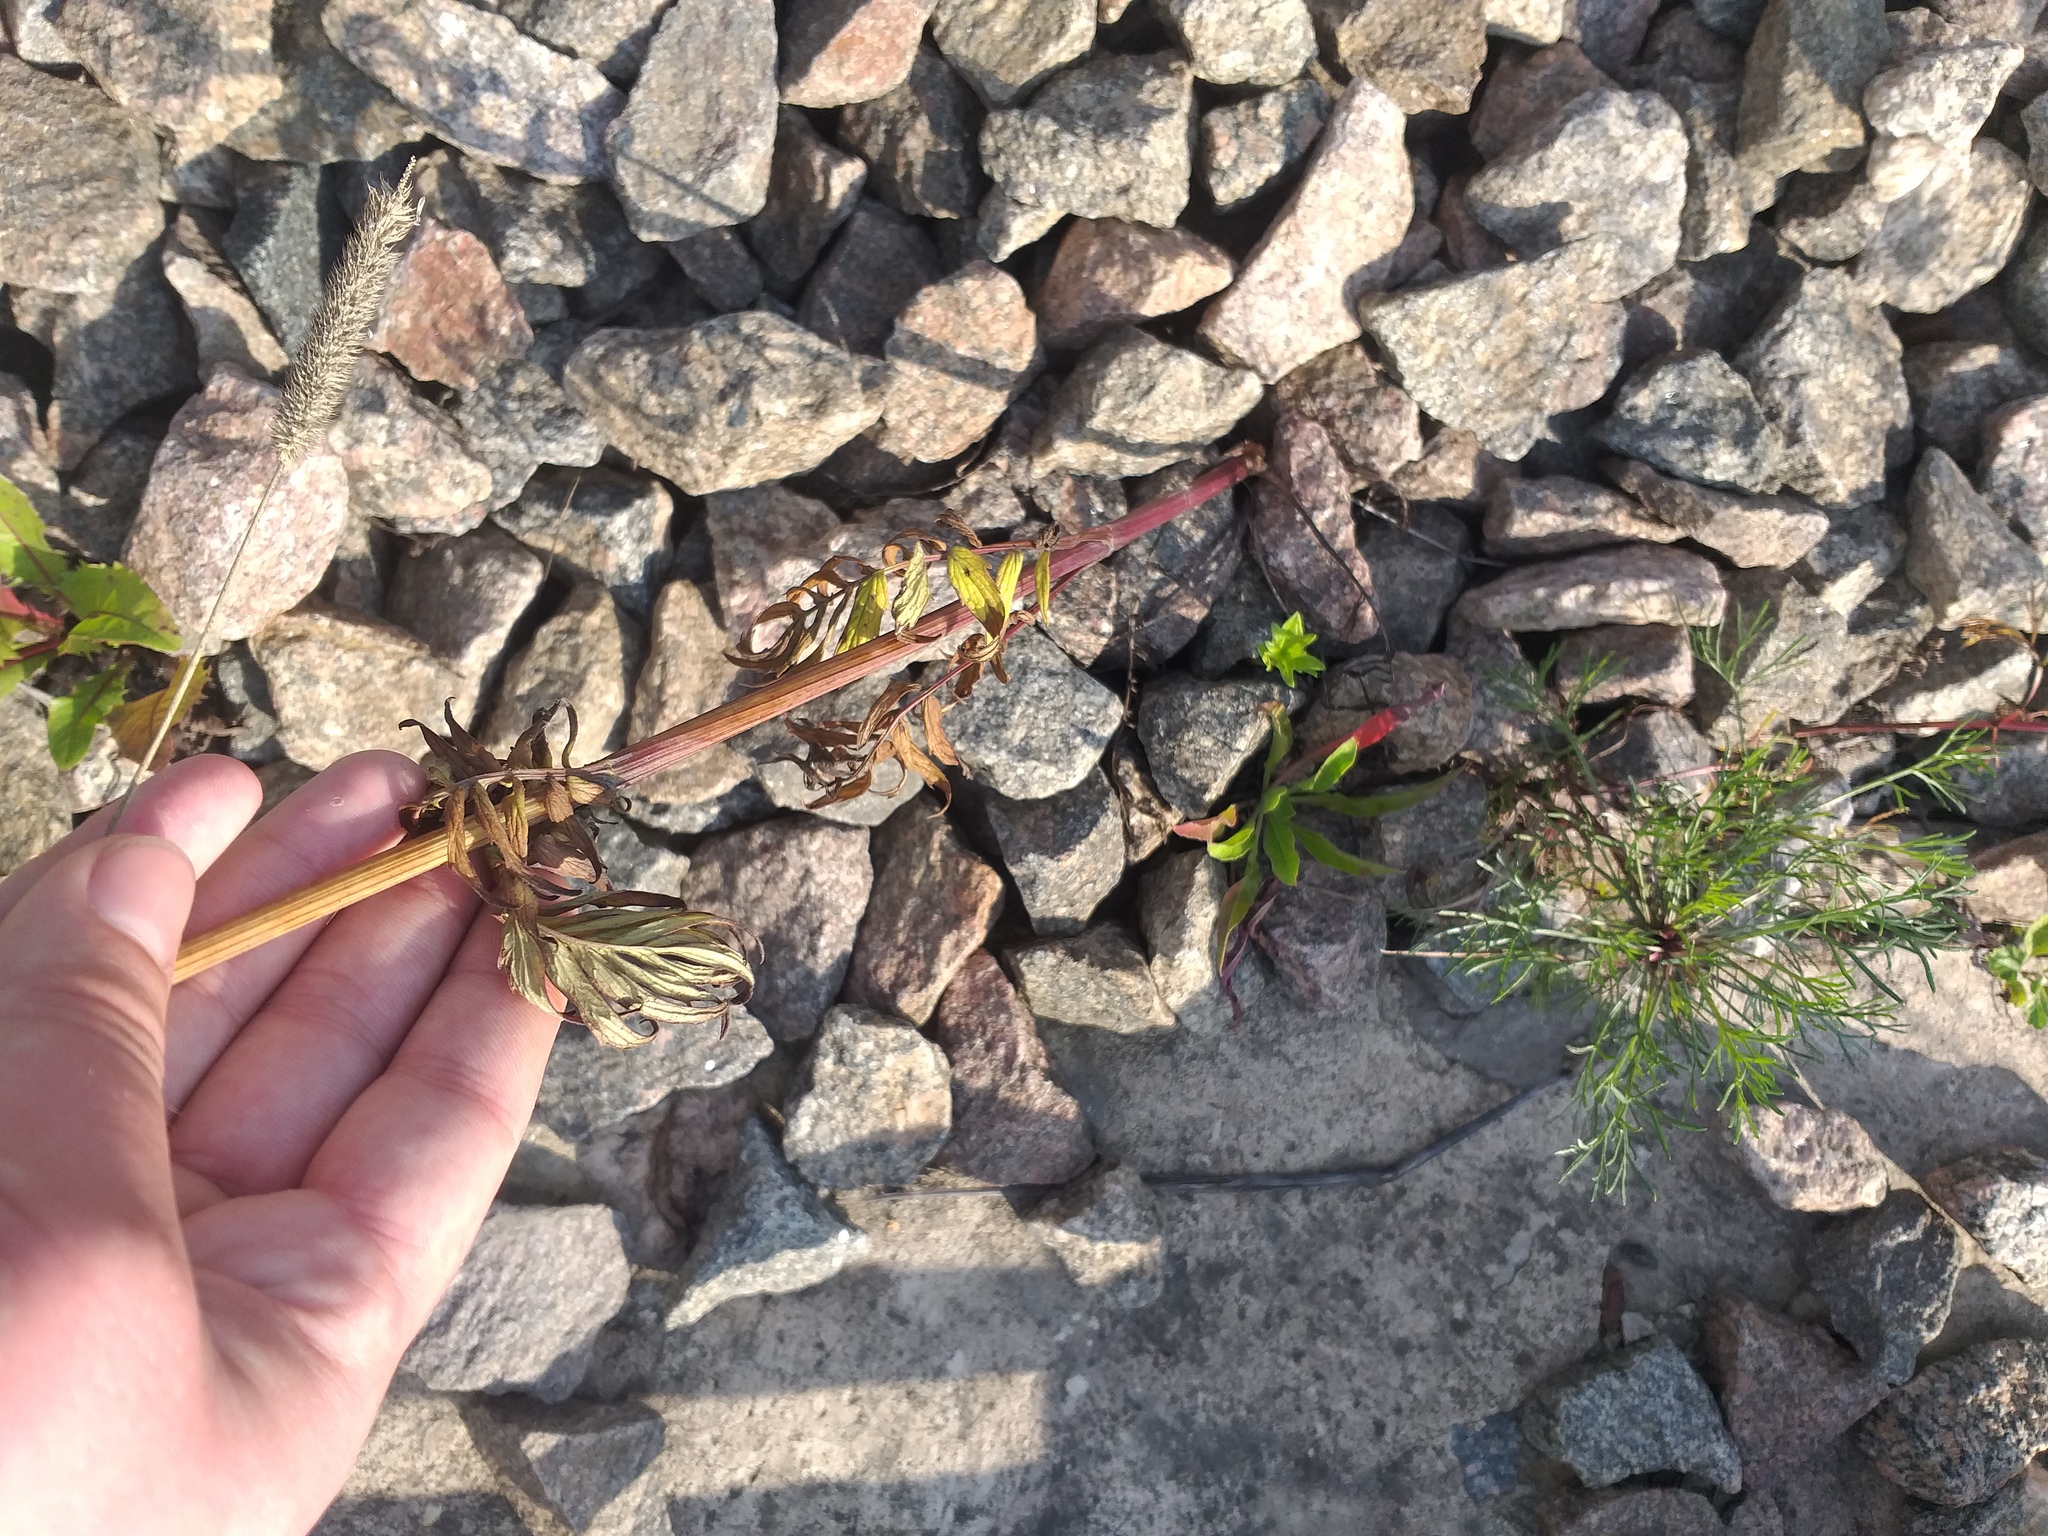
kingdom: Plantae
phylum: Tracheophyta
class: Magnoliopsida
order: Dipsacales
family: Caprifoliaceae
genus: Valeriana
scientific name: Valeriana officinalis
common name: Common valerian
